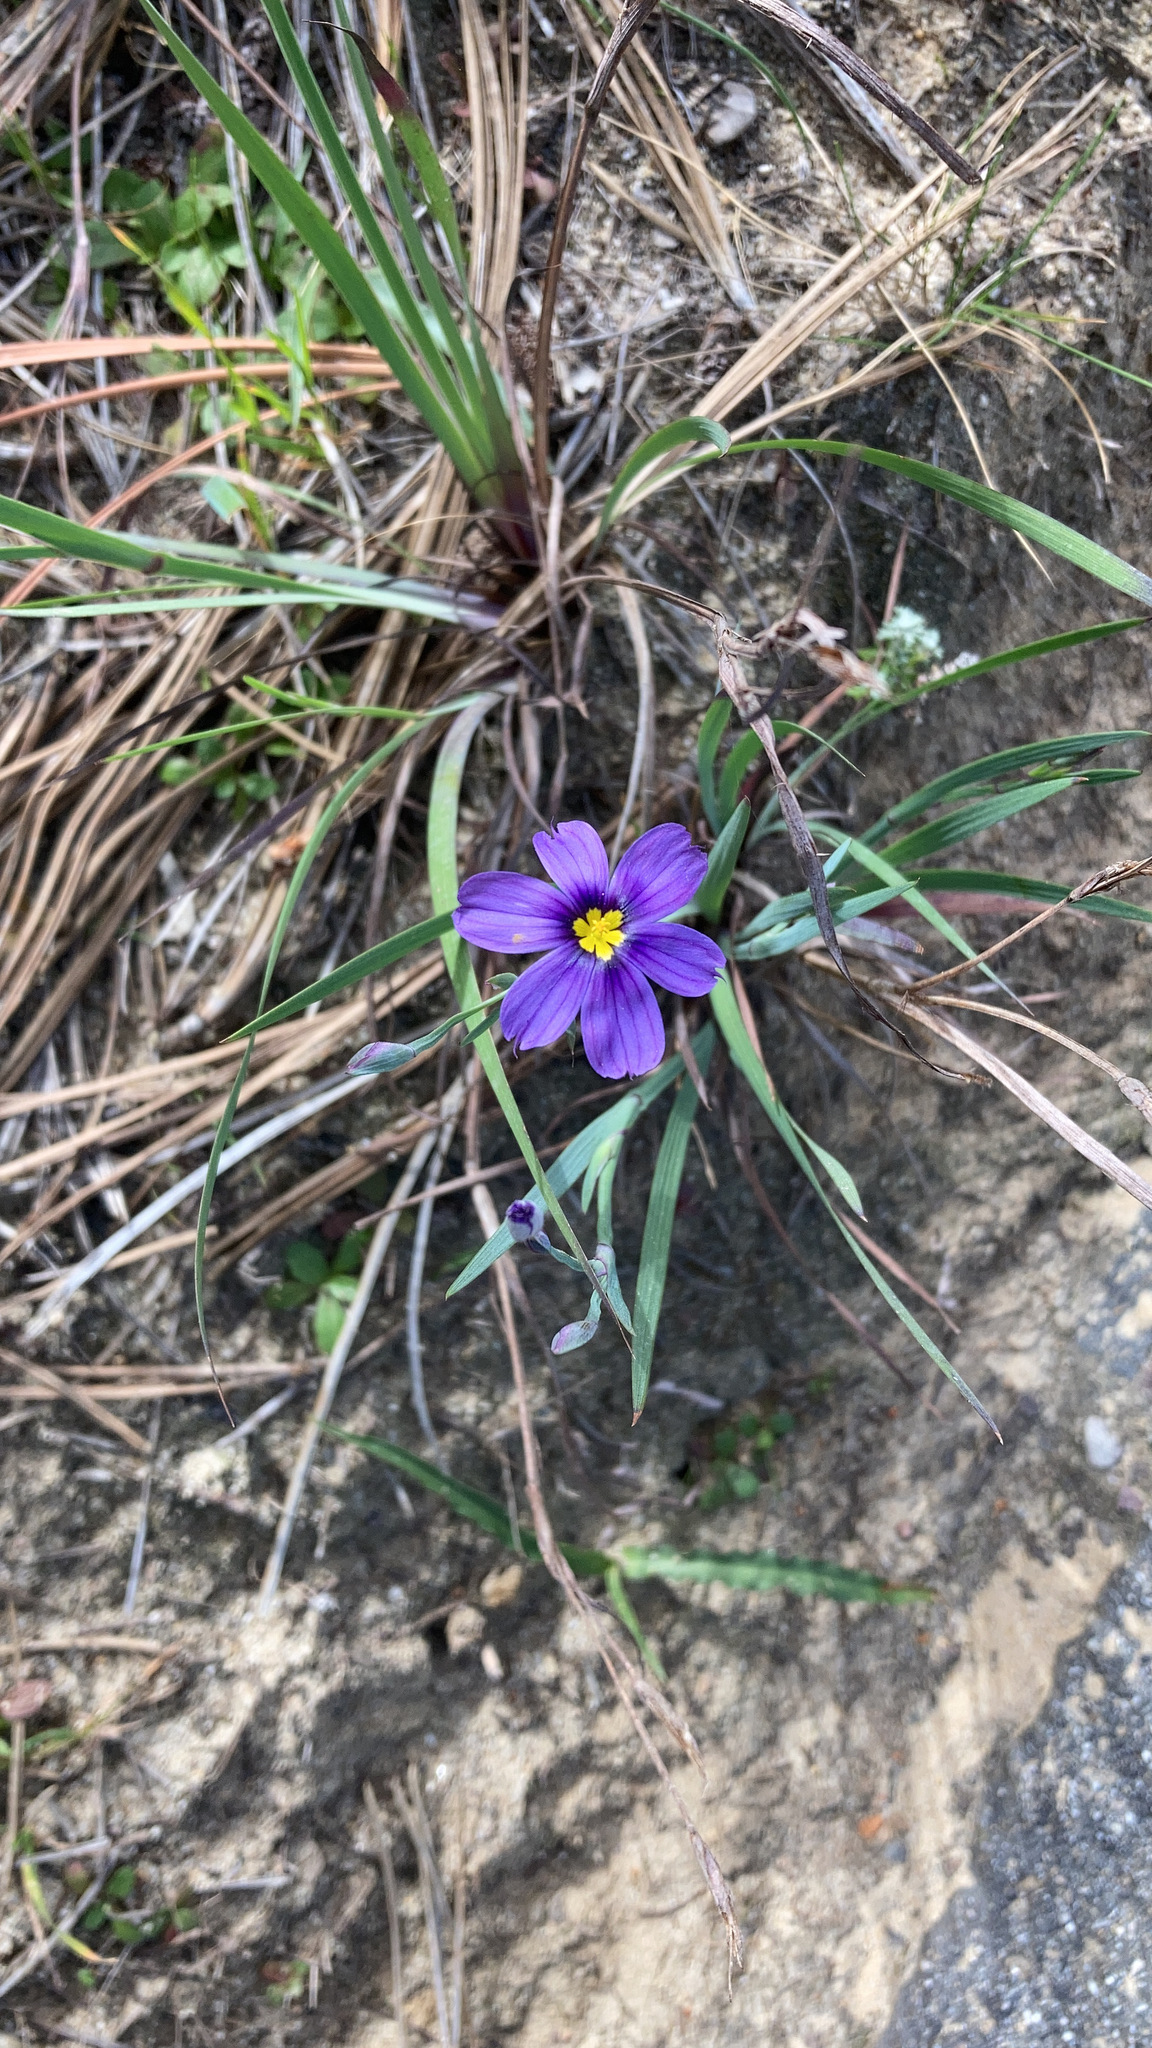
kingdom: Plantae
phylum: Tracheophyta
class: Liliopsida
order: Asparagales
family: Iridaceae
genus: Sisyrinchium
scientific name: Sisyrinchium bellum
